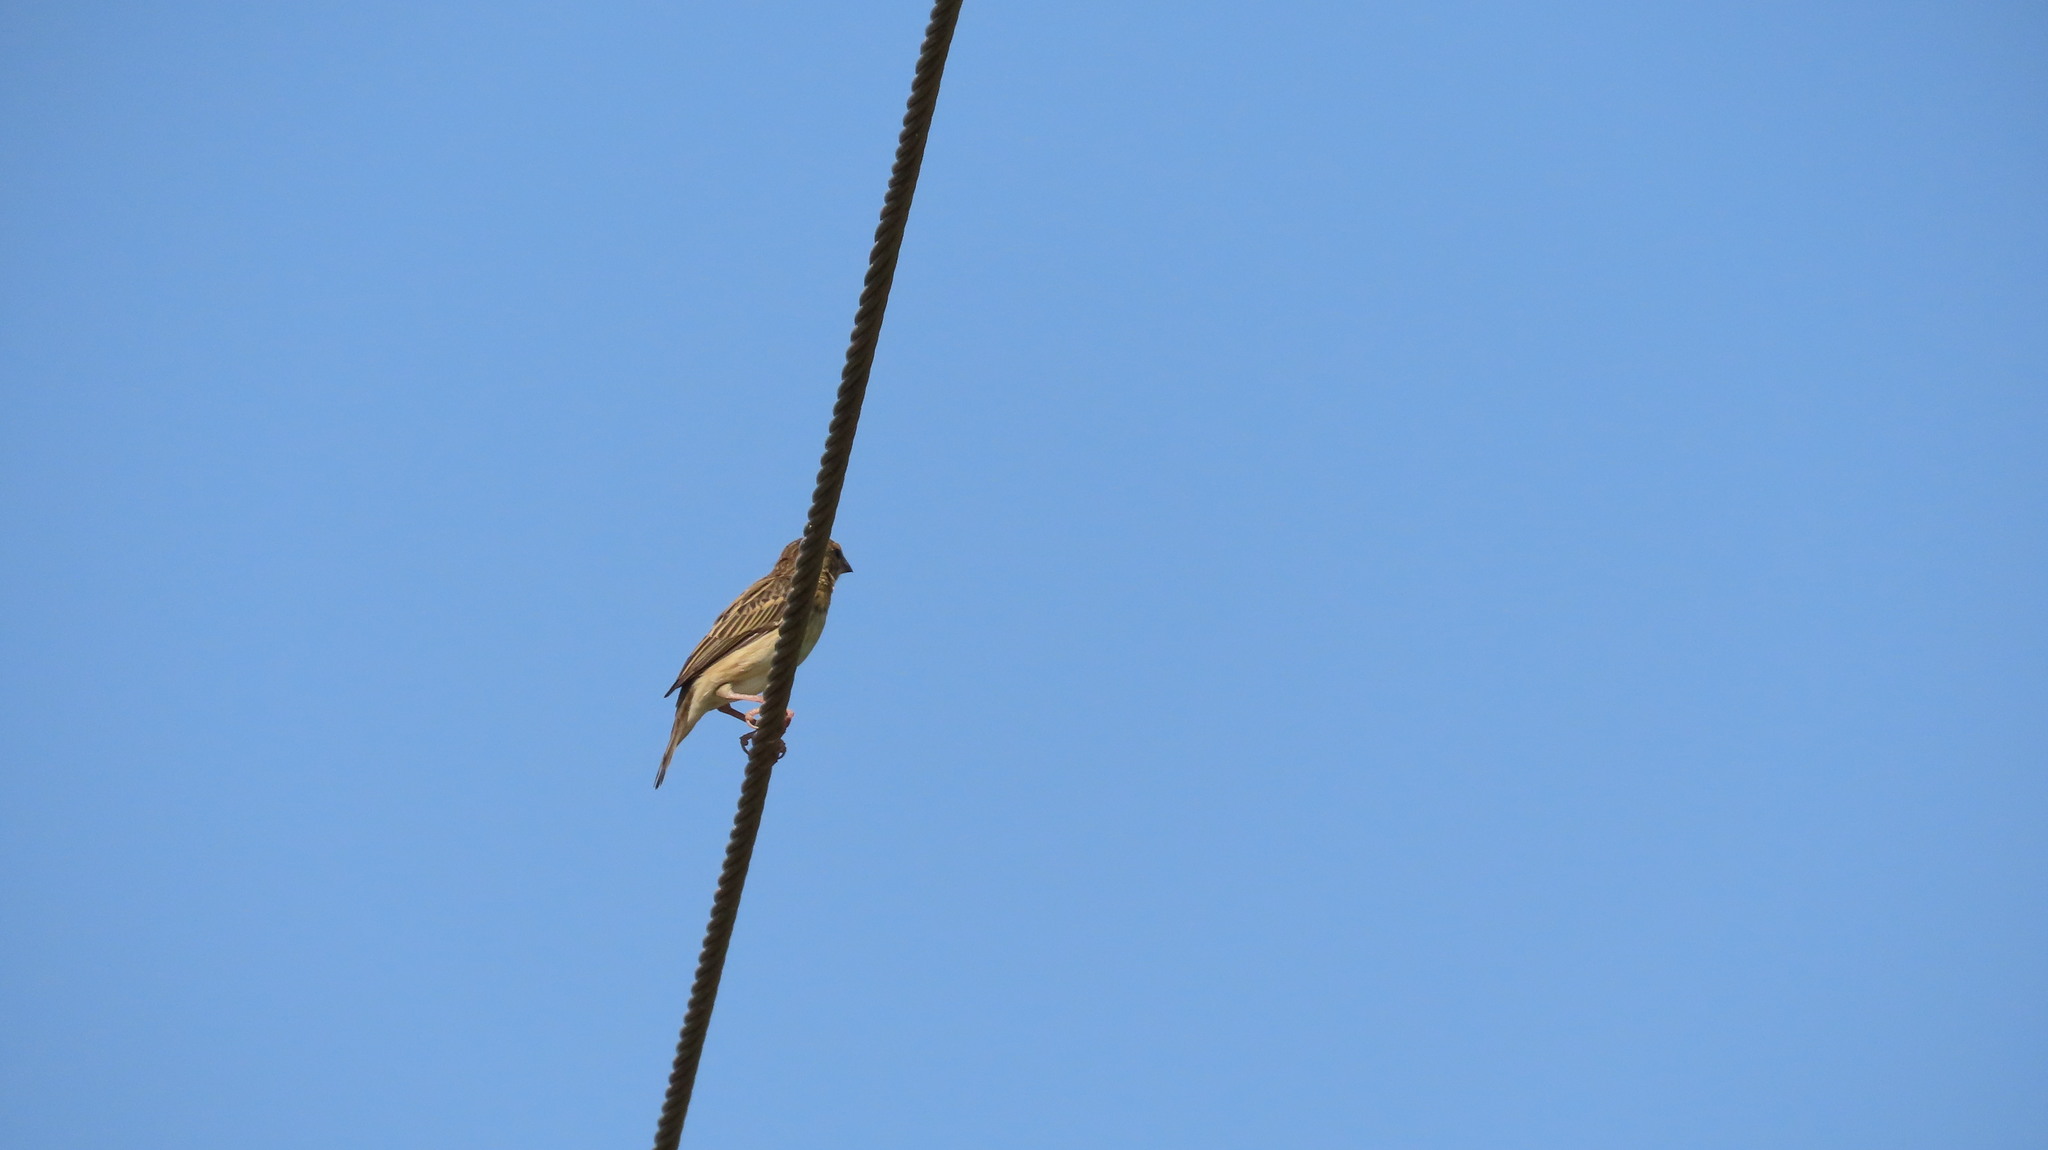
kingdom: Animalia
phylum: Chordata
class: Aves
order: Passeriformes
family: Ploceidae
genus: Ploceus
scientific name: Ploceus philippinus
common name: Baya weaver
